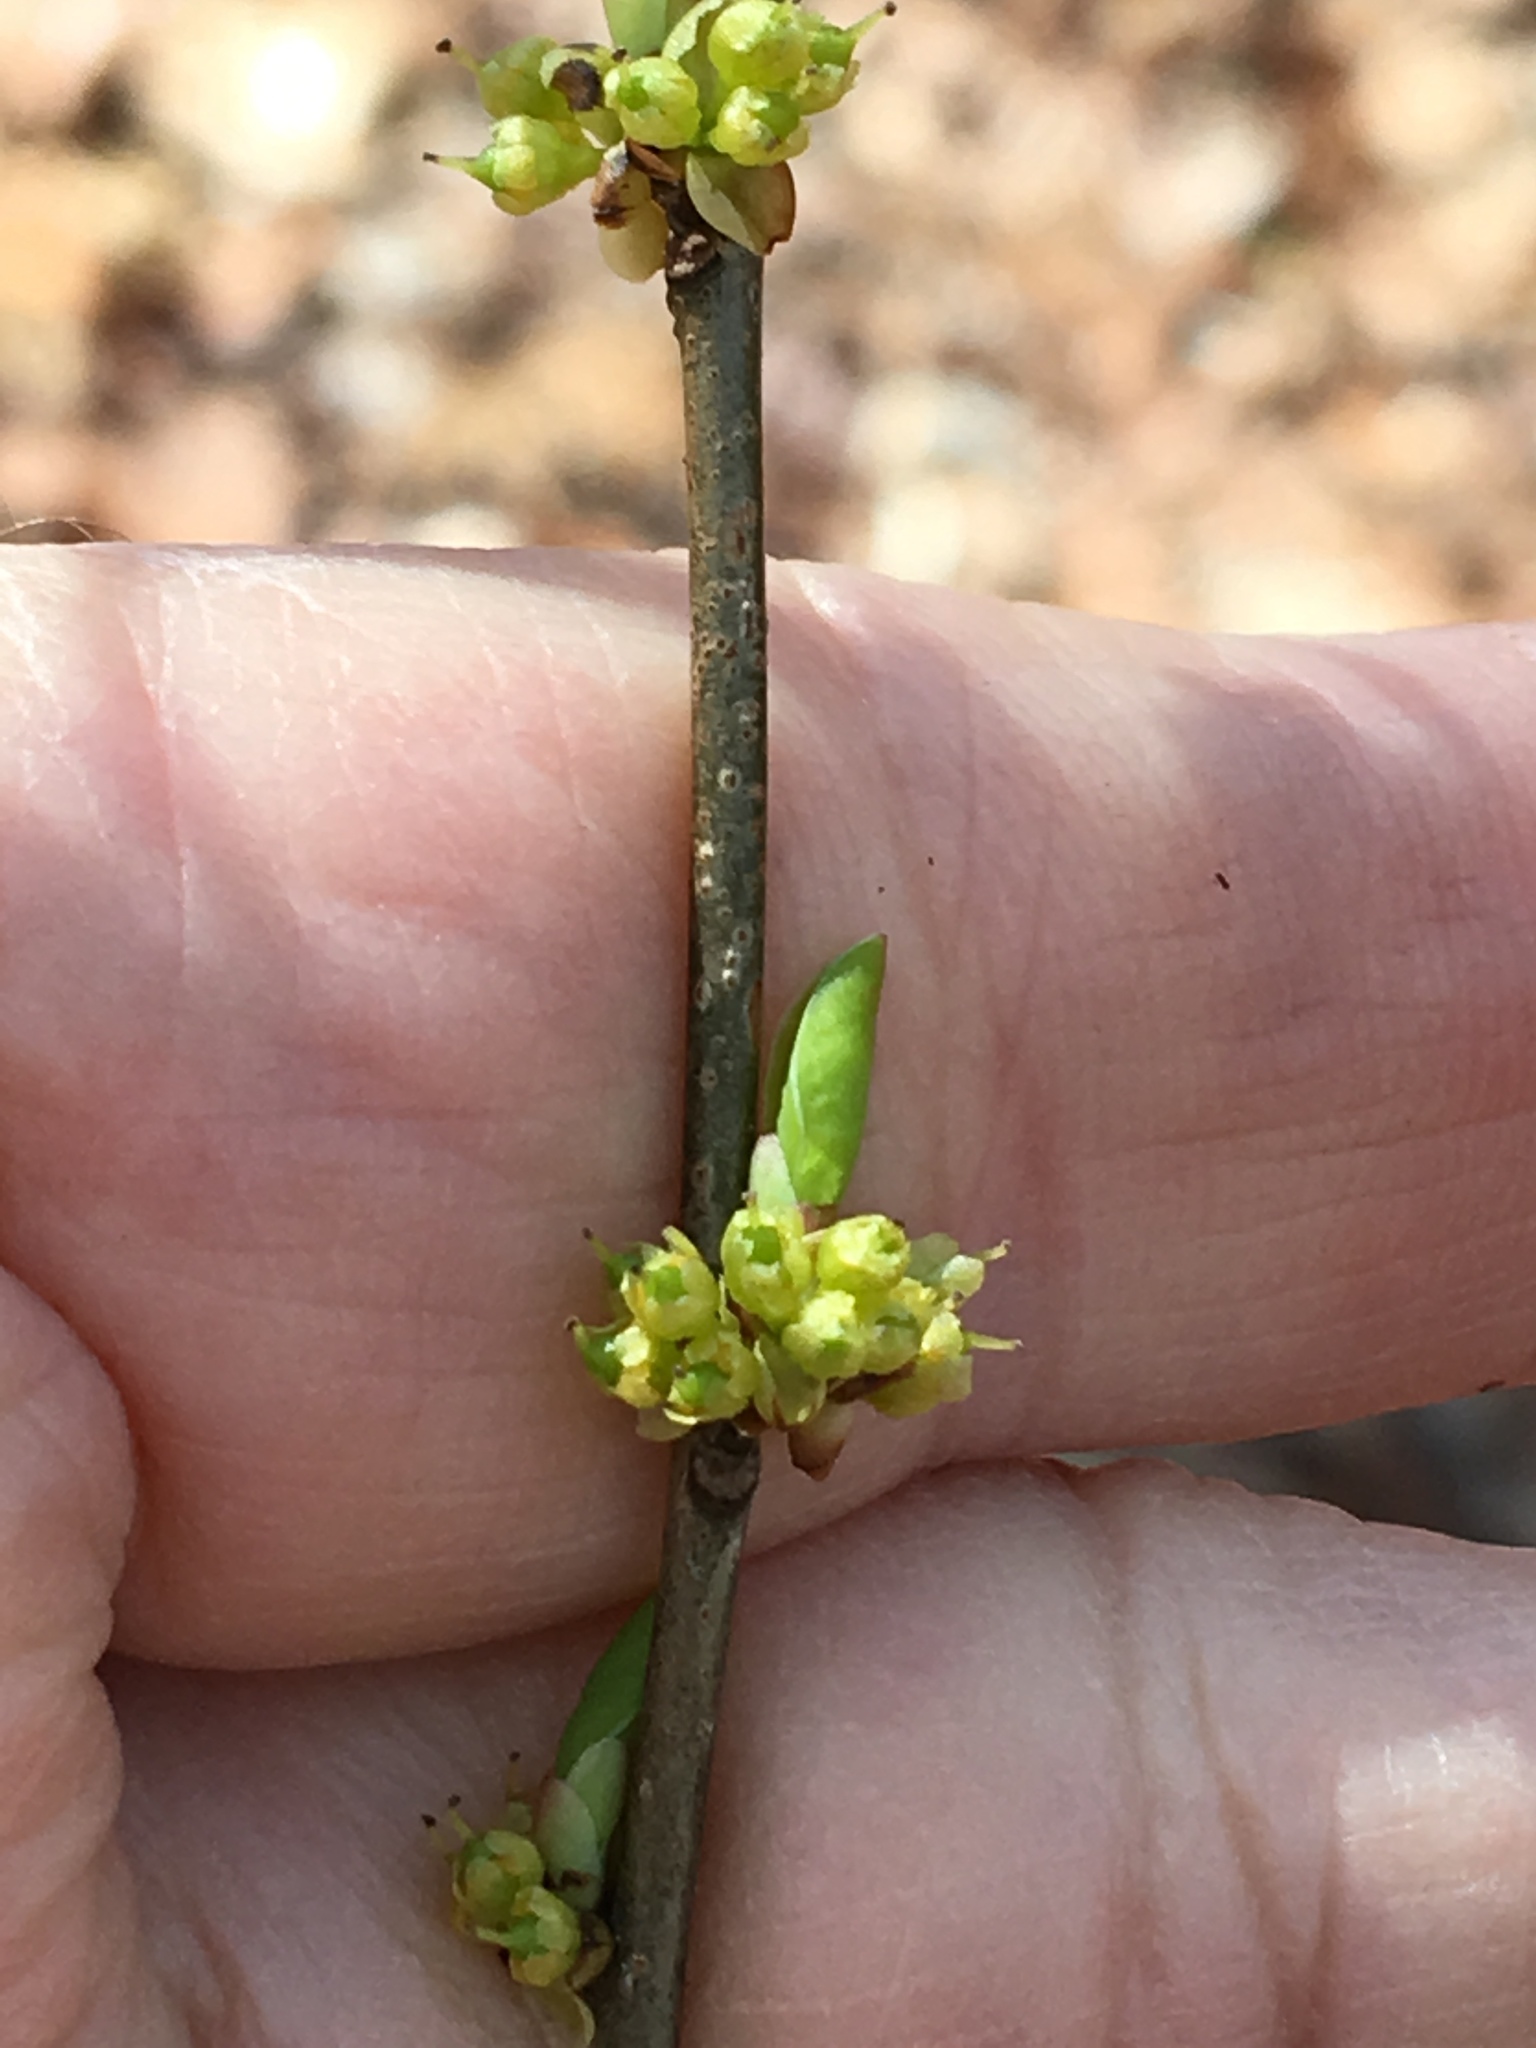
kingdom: Plantae
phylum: Tracheophyta
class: Magnoliopsida
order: Laurales
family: Lauraceae
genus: Lindera
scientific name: Lindera benzoin
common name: Spicebush
